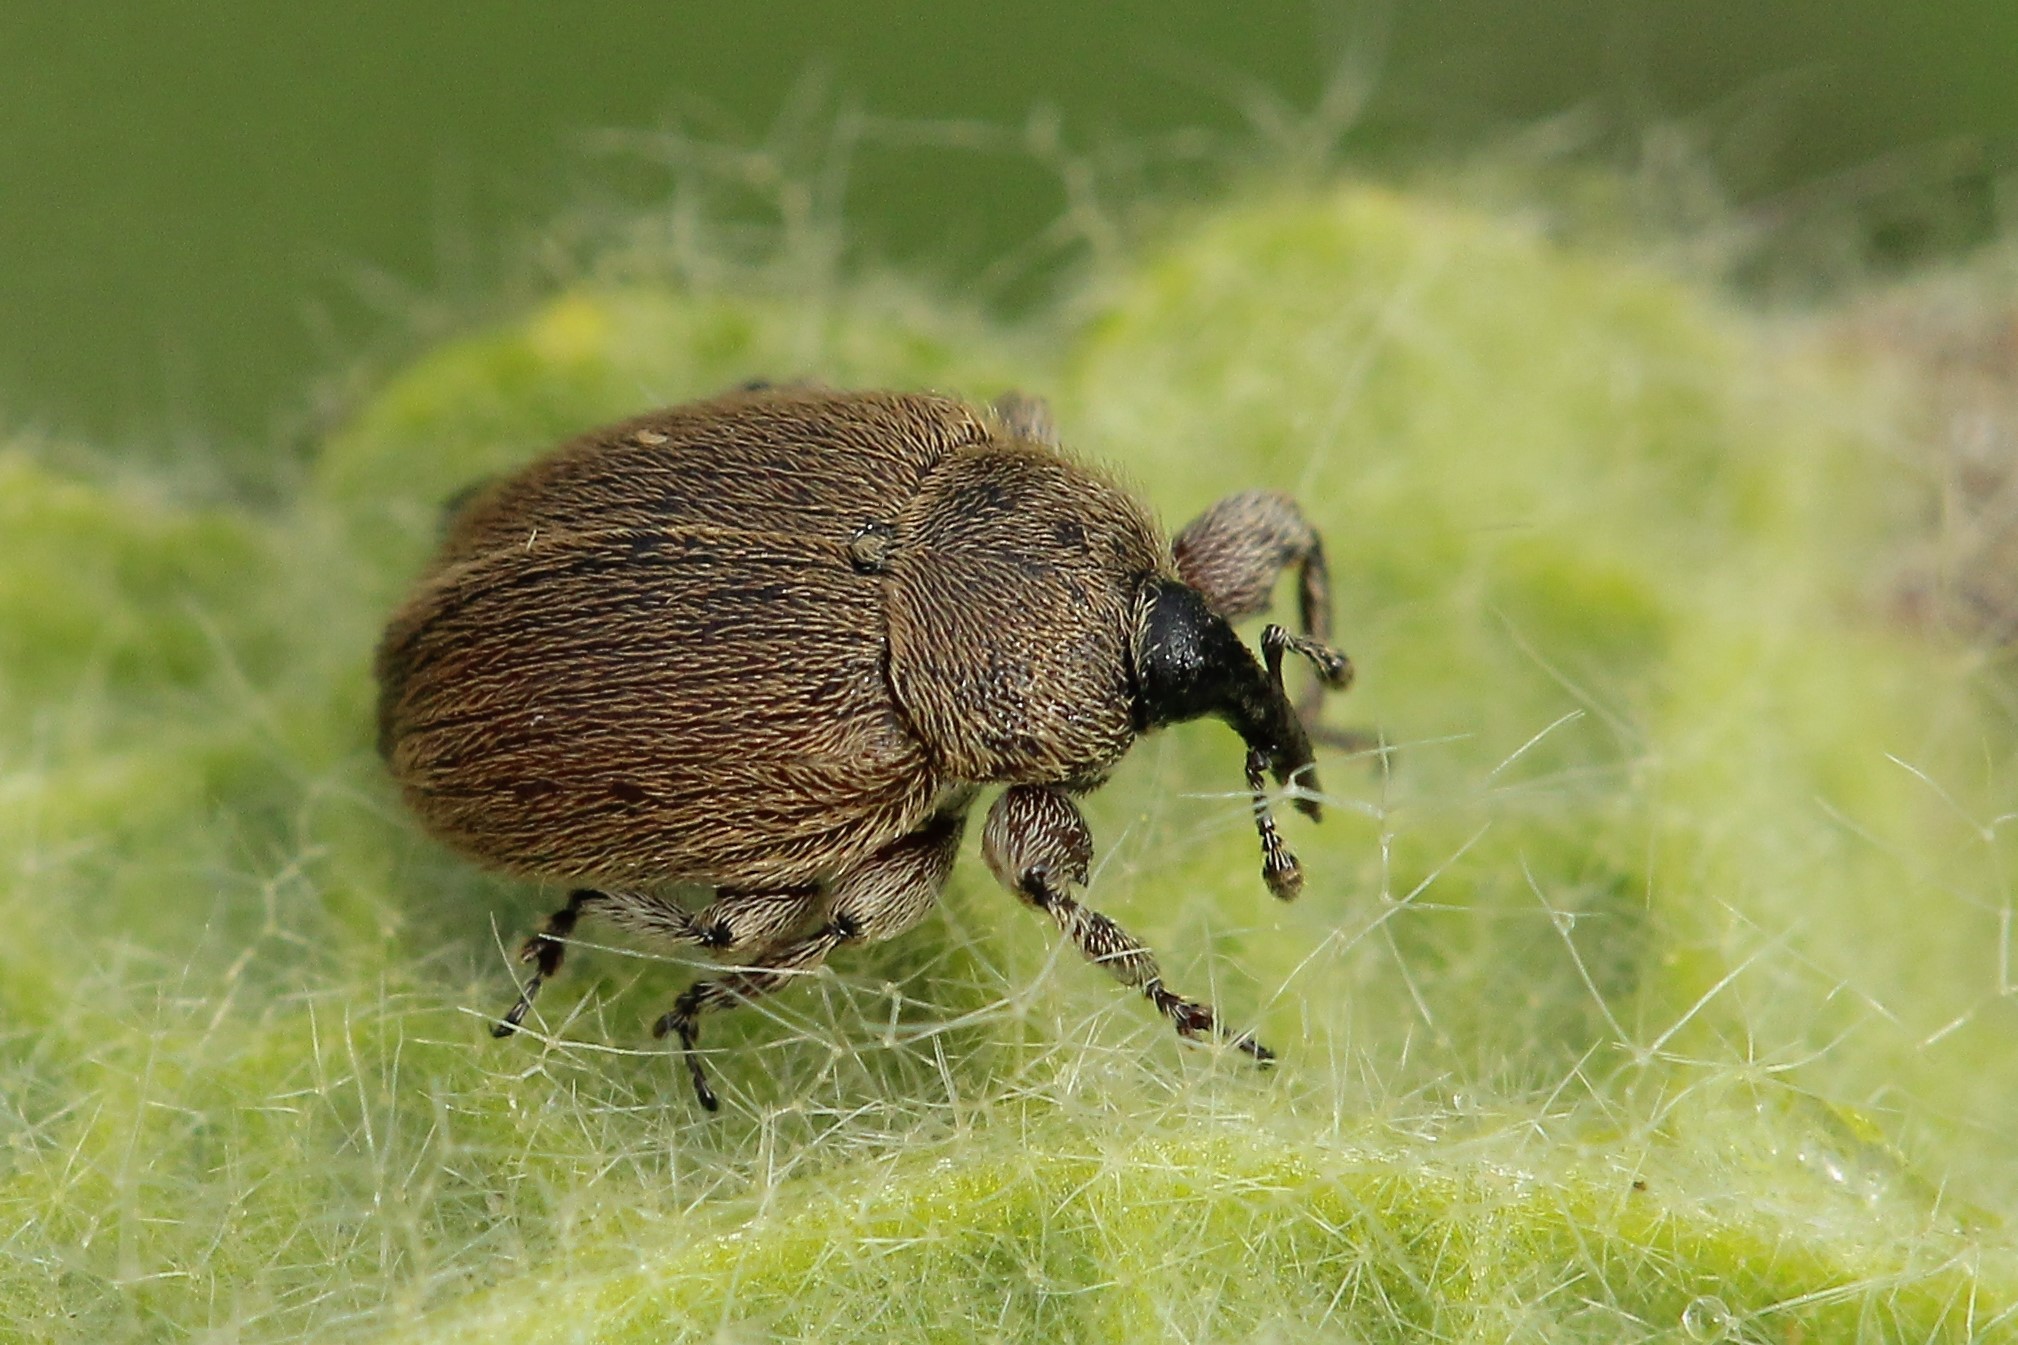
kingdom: Animalia
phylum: Arthropoda
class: Insecta
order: Coleoptera
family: Curculionidae
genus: Rhinusa
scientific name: Rhinusa tetra
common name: Weevil
